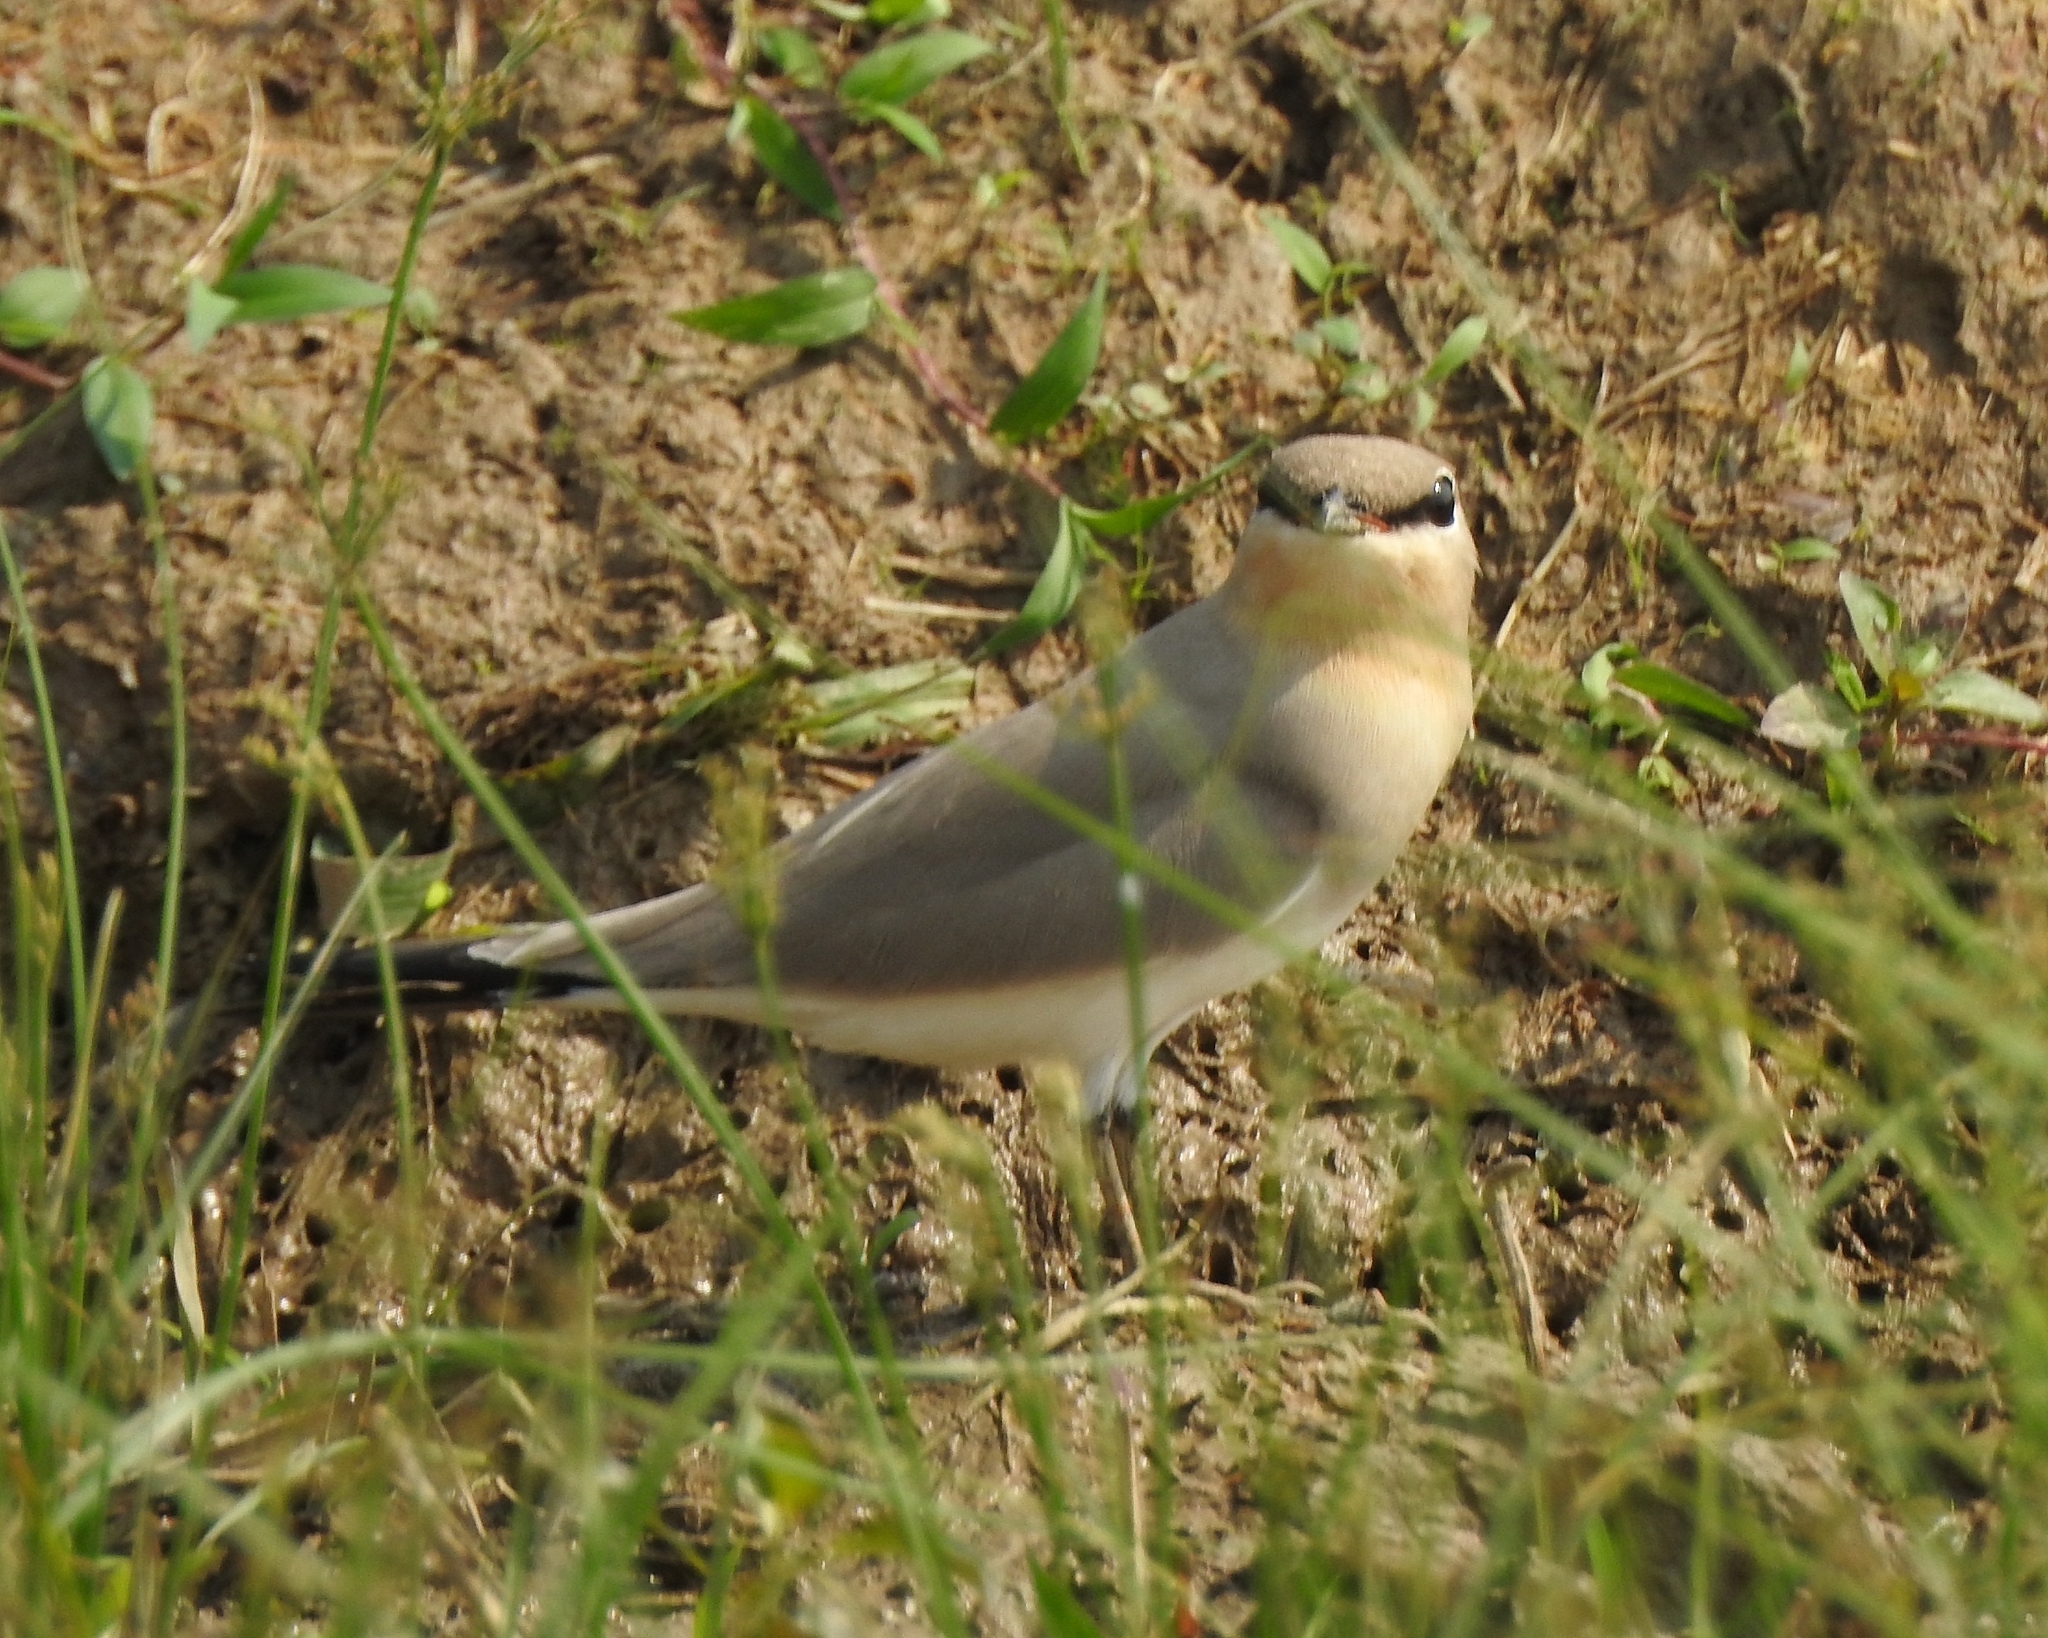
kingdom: Animalia
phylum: Chordata
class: Aves
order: Charadriiformes
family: Glareolidae
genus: Glareola
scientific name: Glareola lactea
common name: Small pratincole
